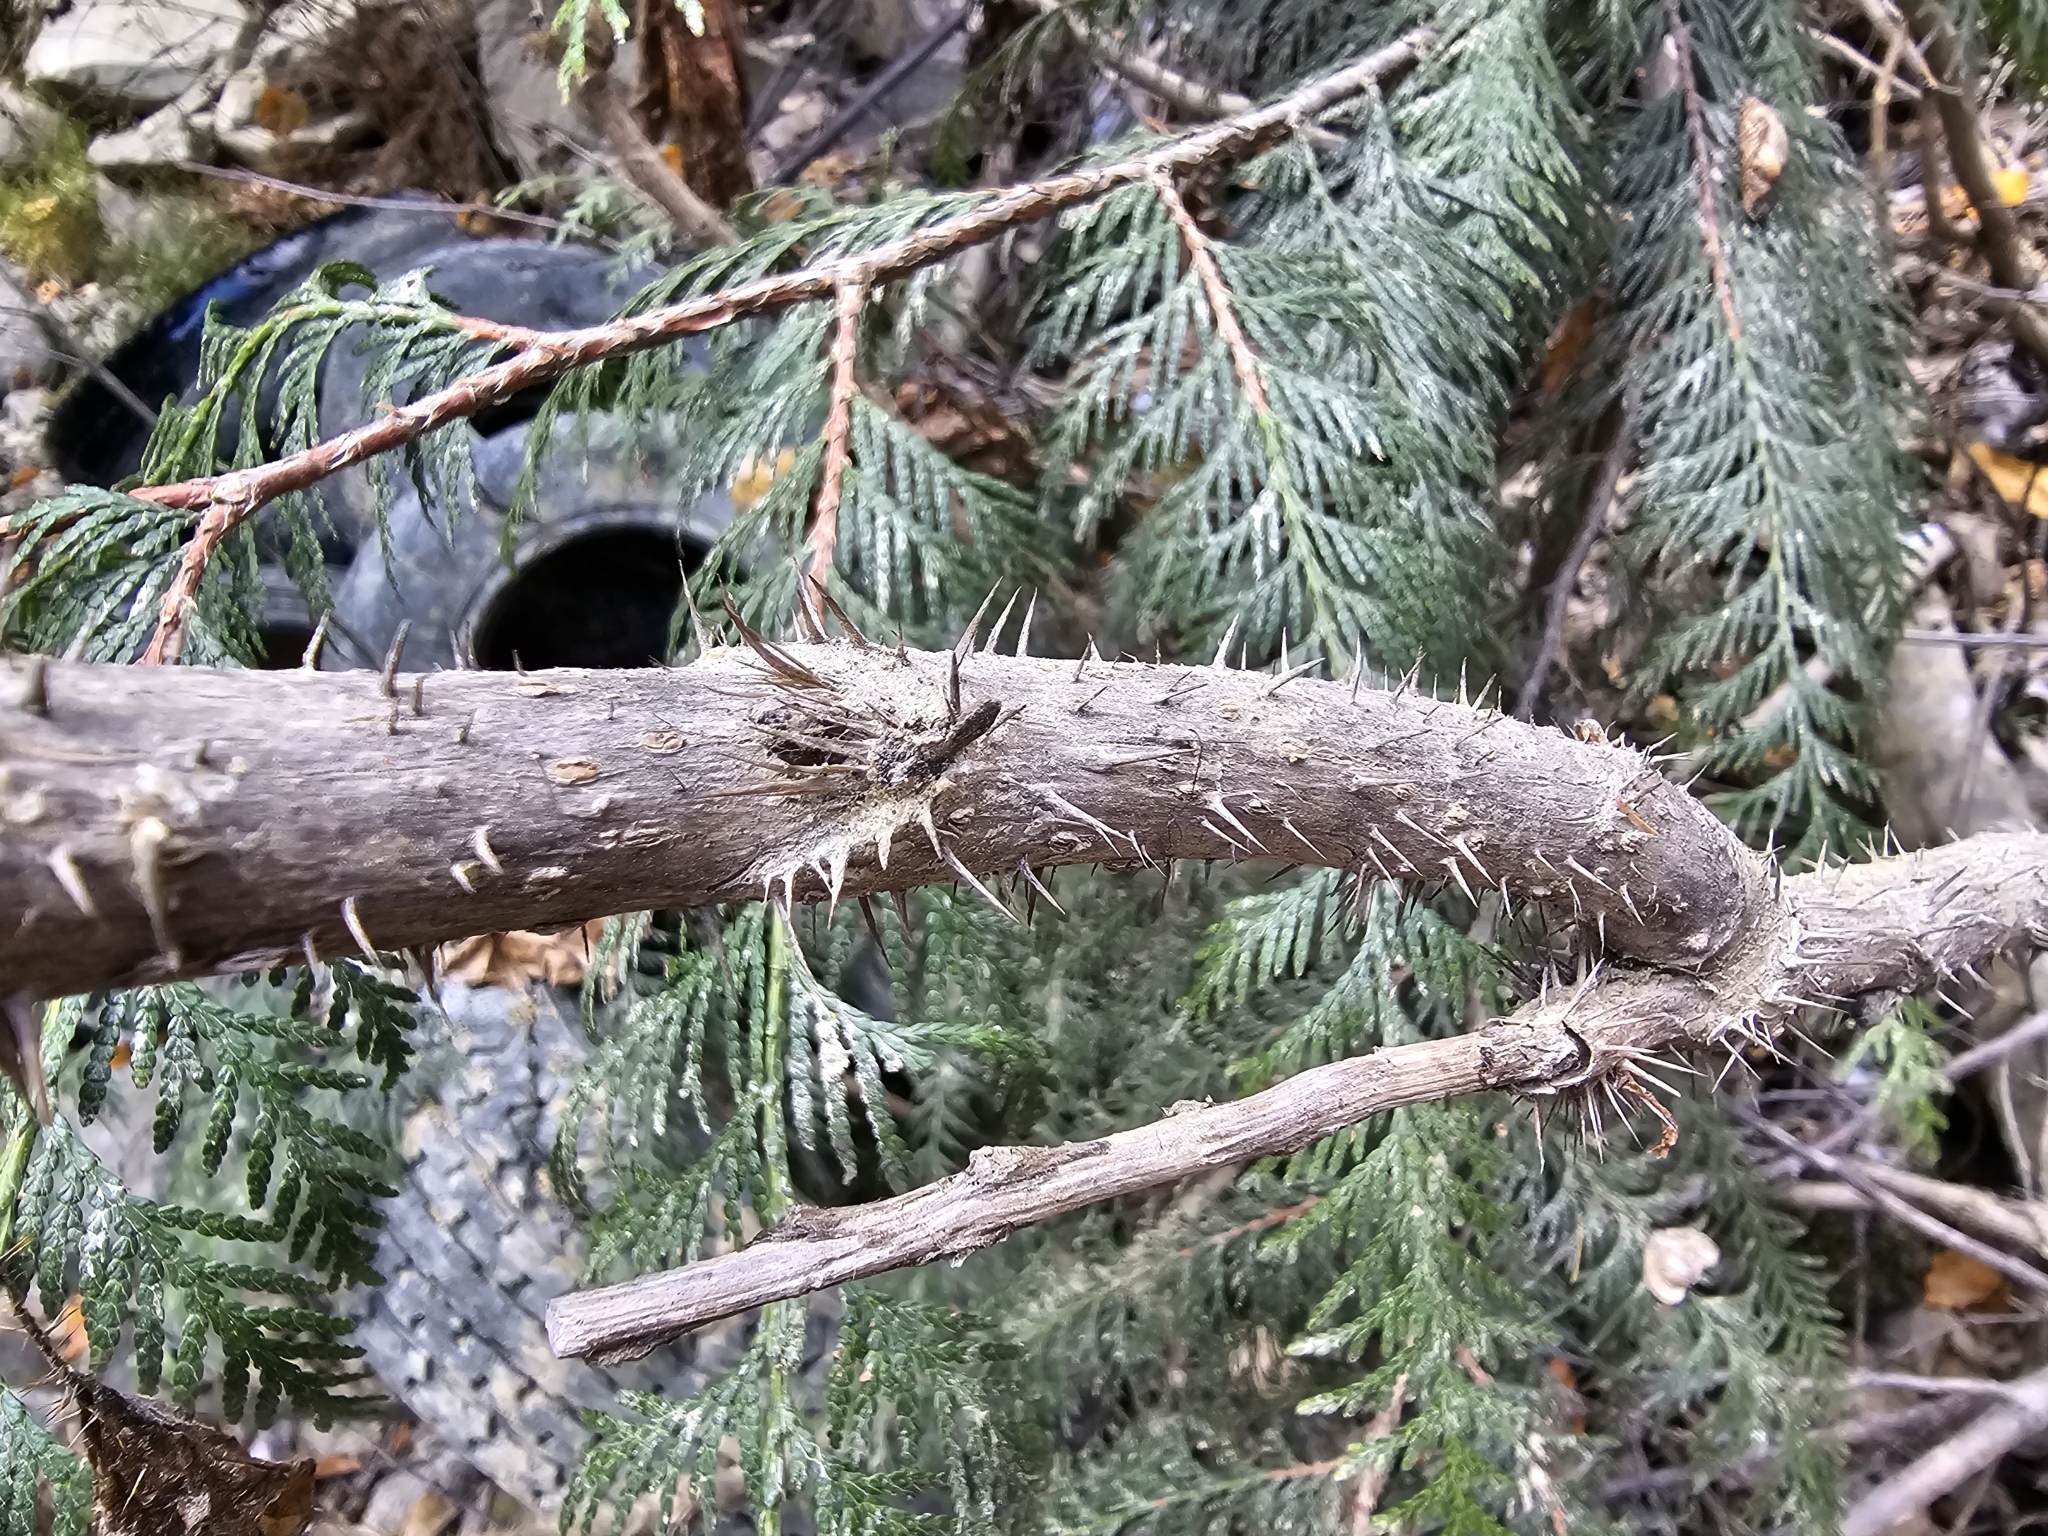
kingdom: Plantae
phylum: Tracheophyta
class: Magnoliopsida
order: Apiales
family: Araliaceae
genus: Oplopanax
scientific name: Oplopanax horridus
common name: Devil's walking-stick
